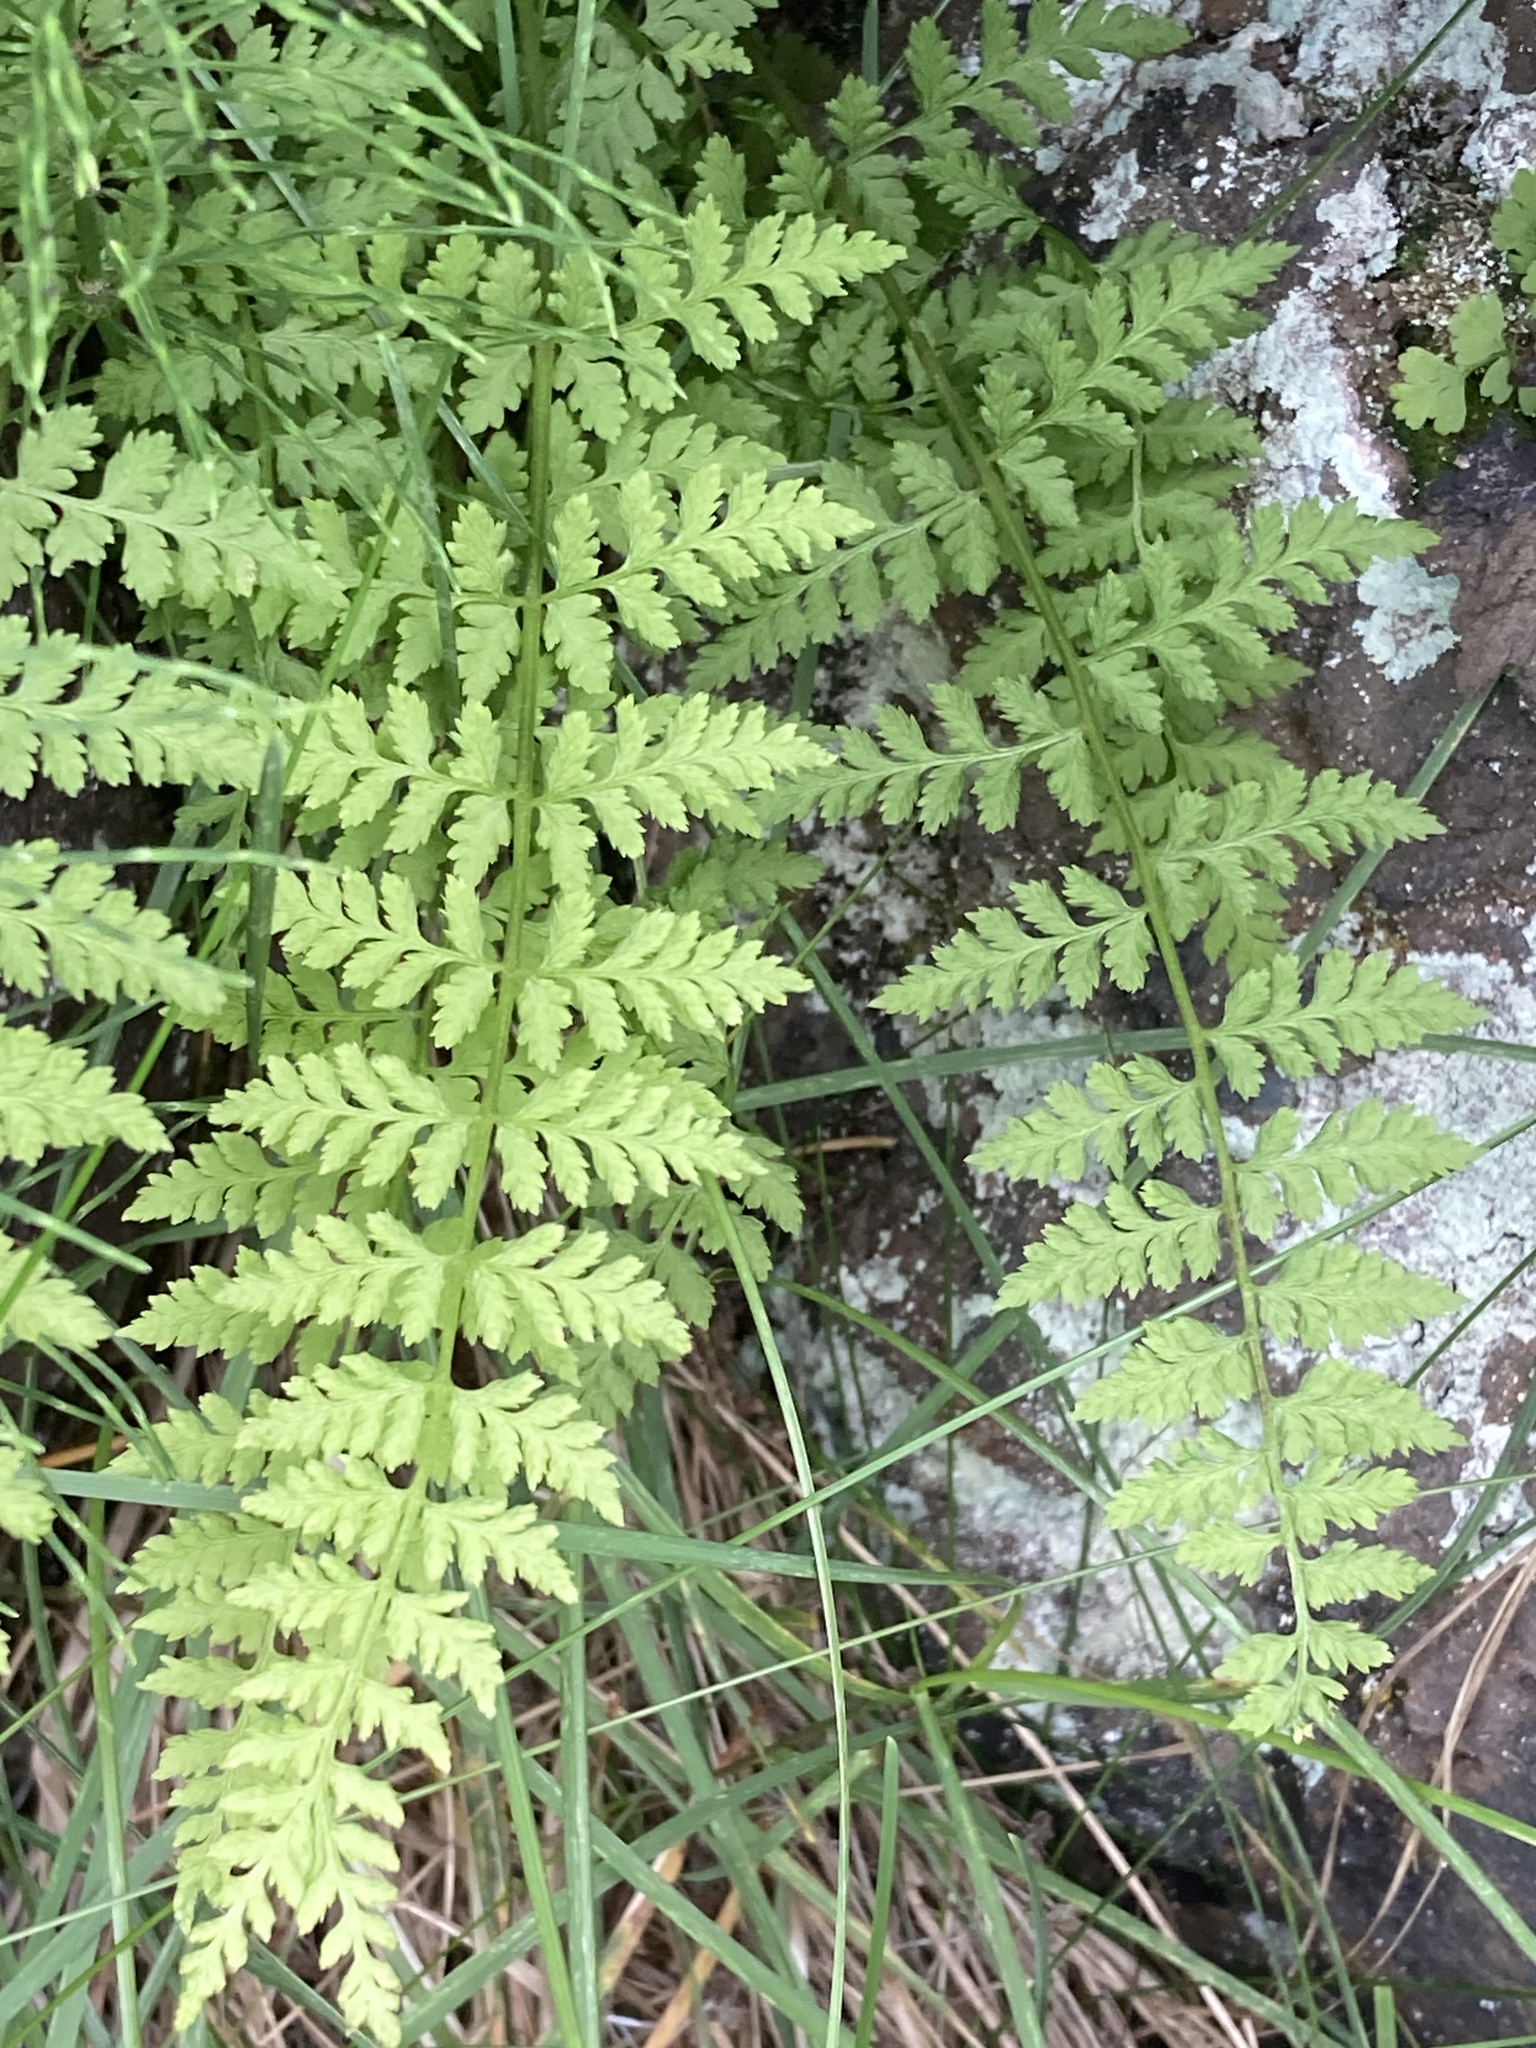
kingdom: Plantae
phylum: Tracheophyta
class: Polypodiopsida
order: Polypodiales
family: Cystopteridaceae
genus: Cystopteris
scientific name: Cystopteris fragilis
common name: Brittle bladder fern
